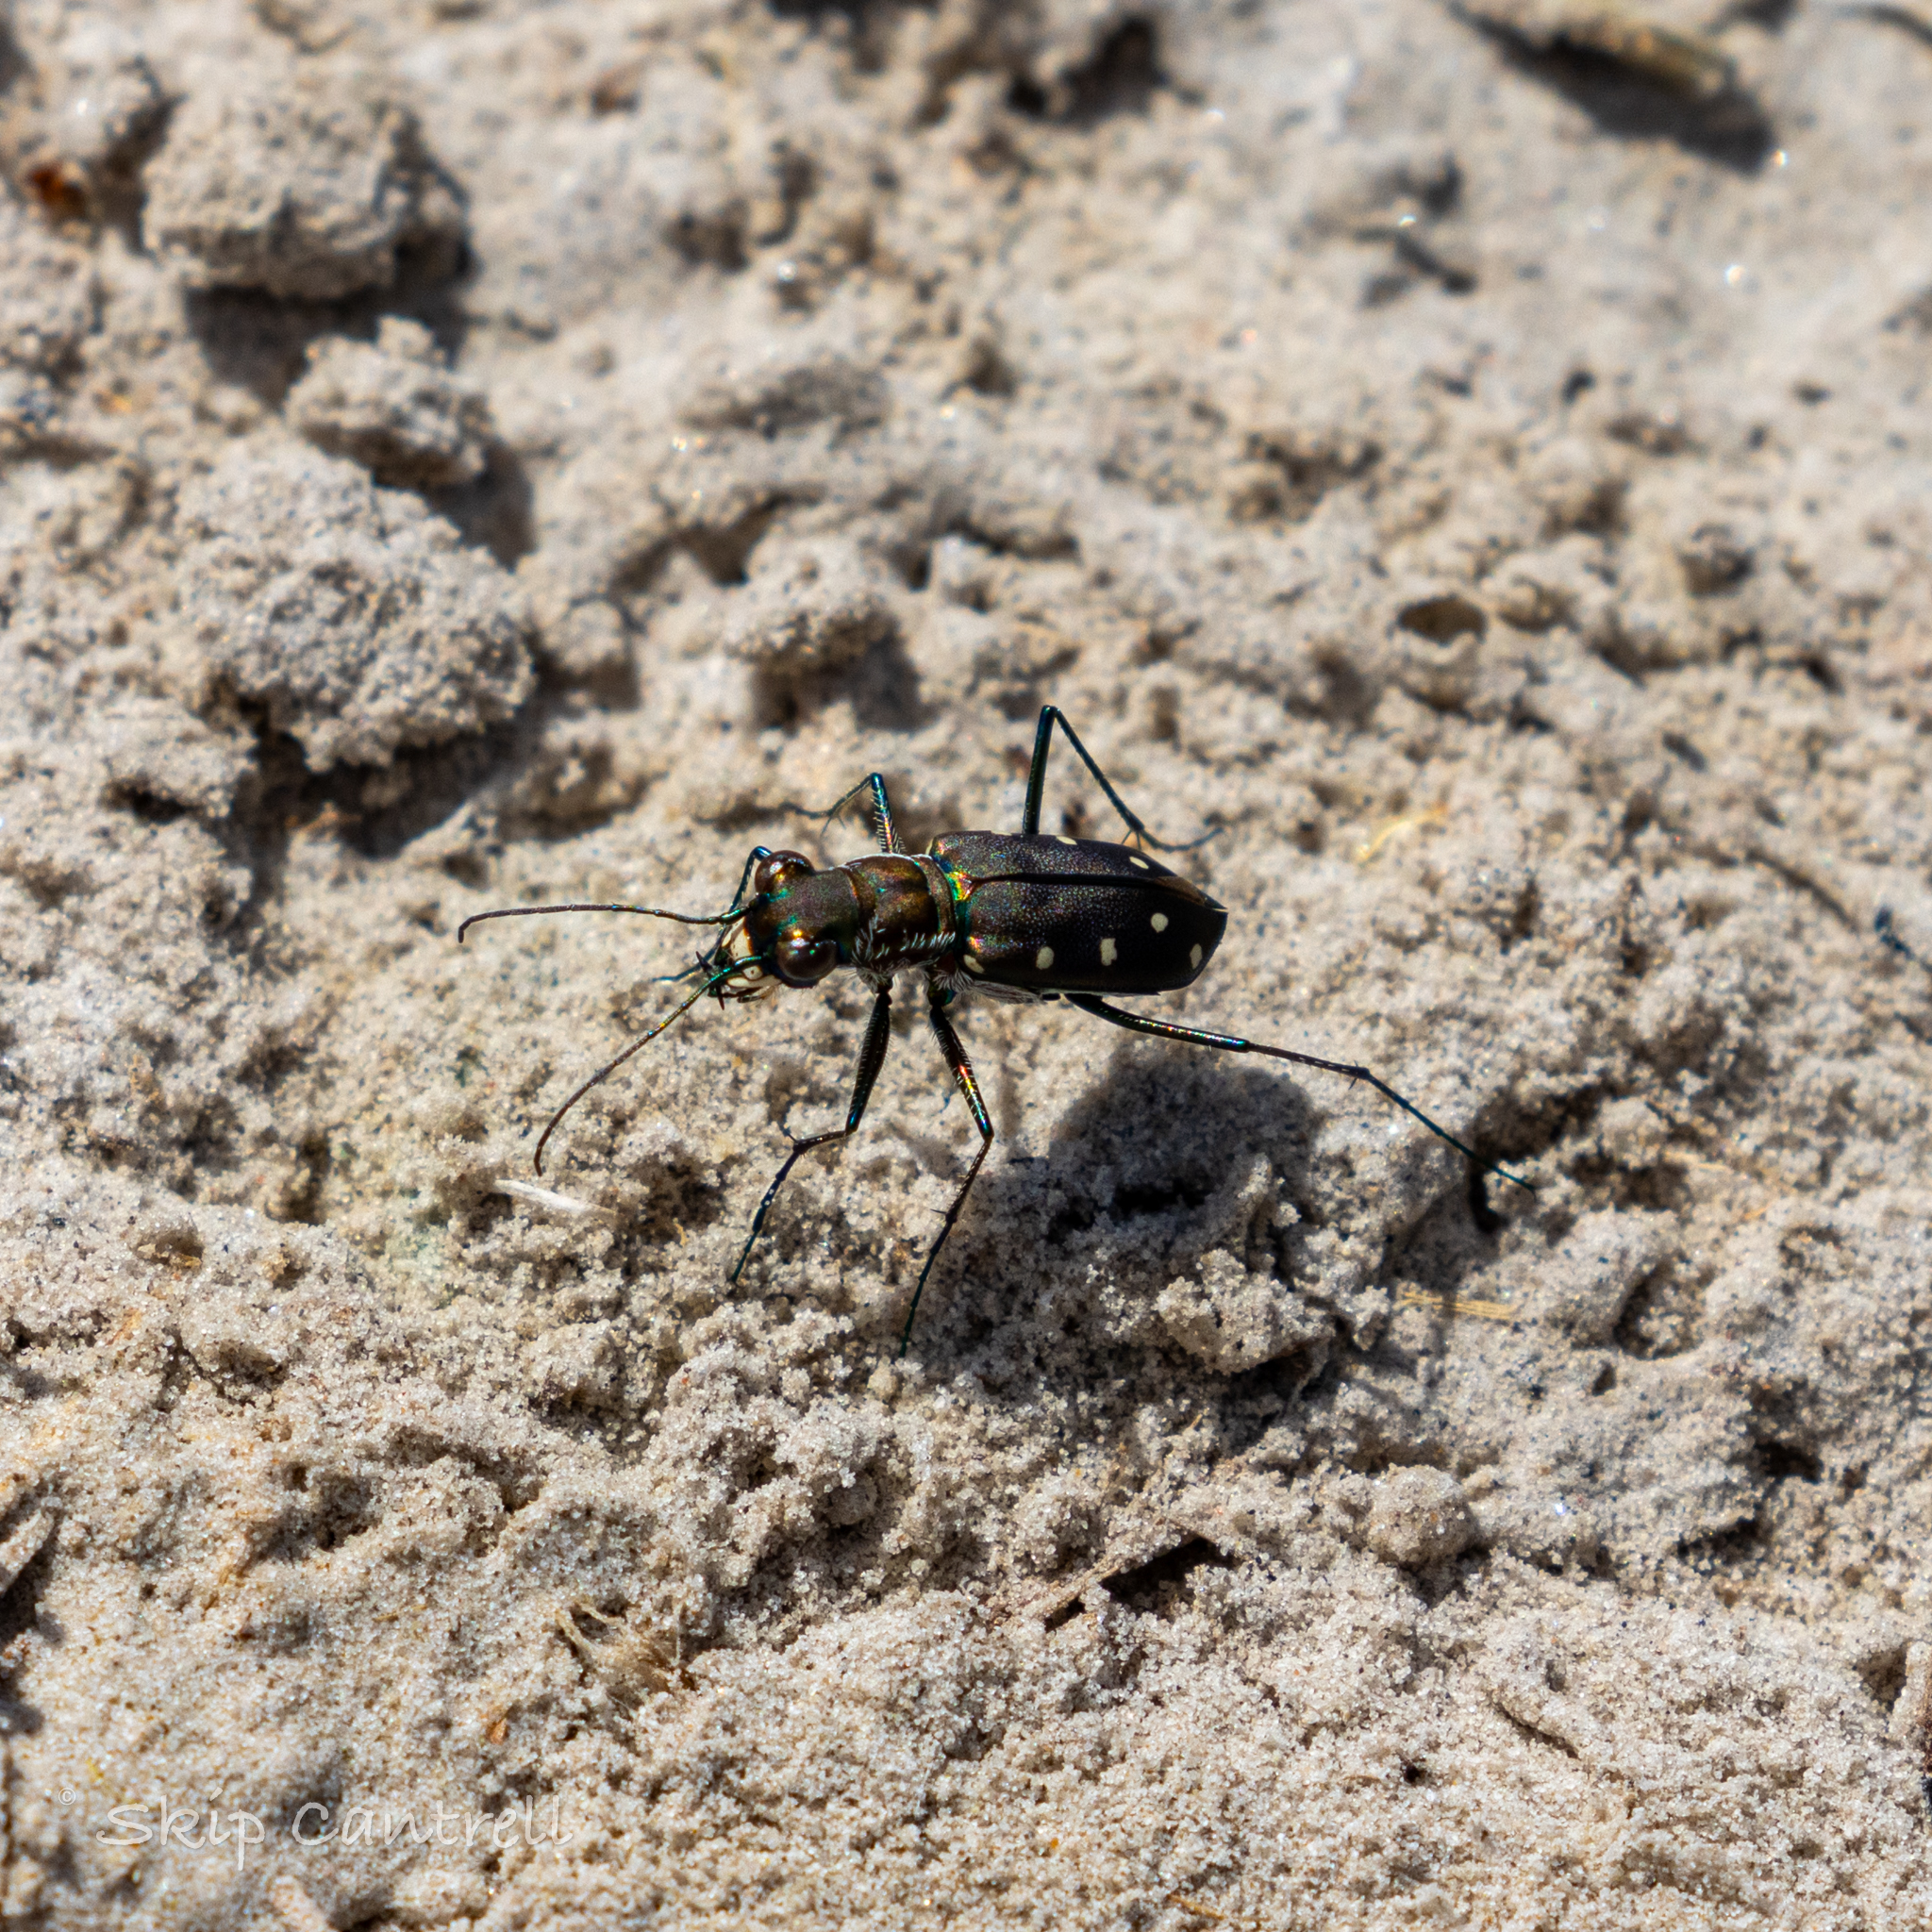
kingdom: Animalia
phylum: Arthropoda
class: Insecta
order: Coleoptera
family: Carabidae
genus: Cicindela
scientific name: Cicindela ocellata
